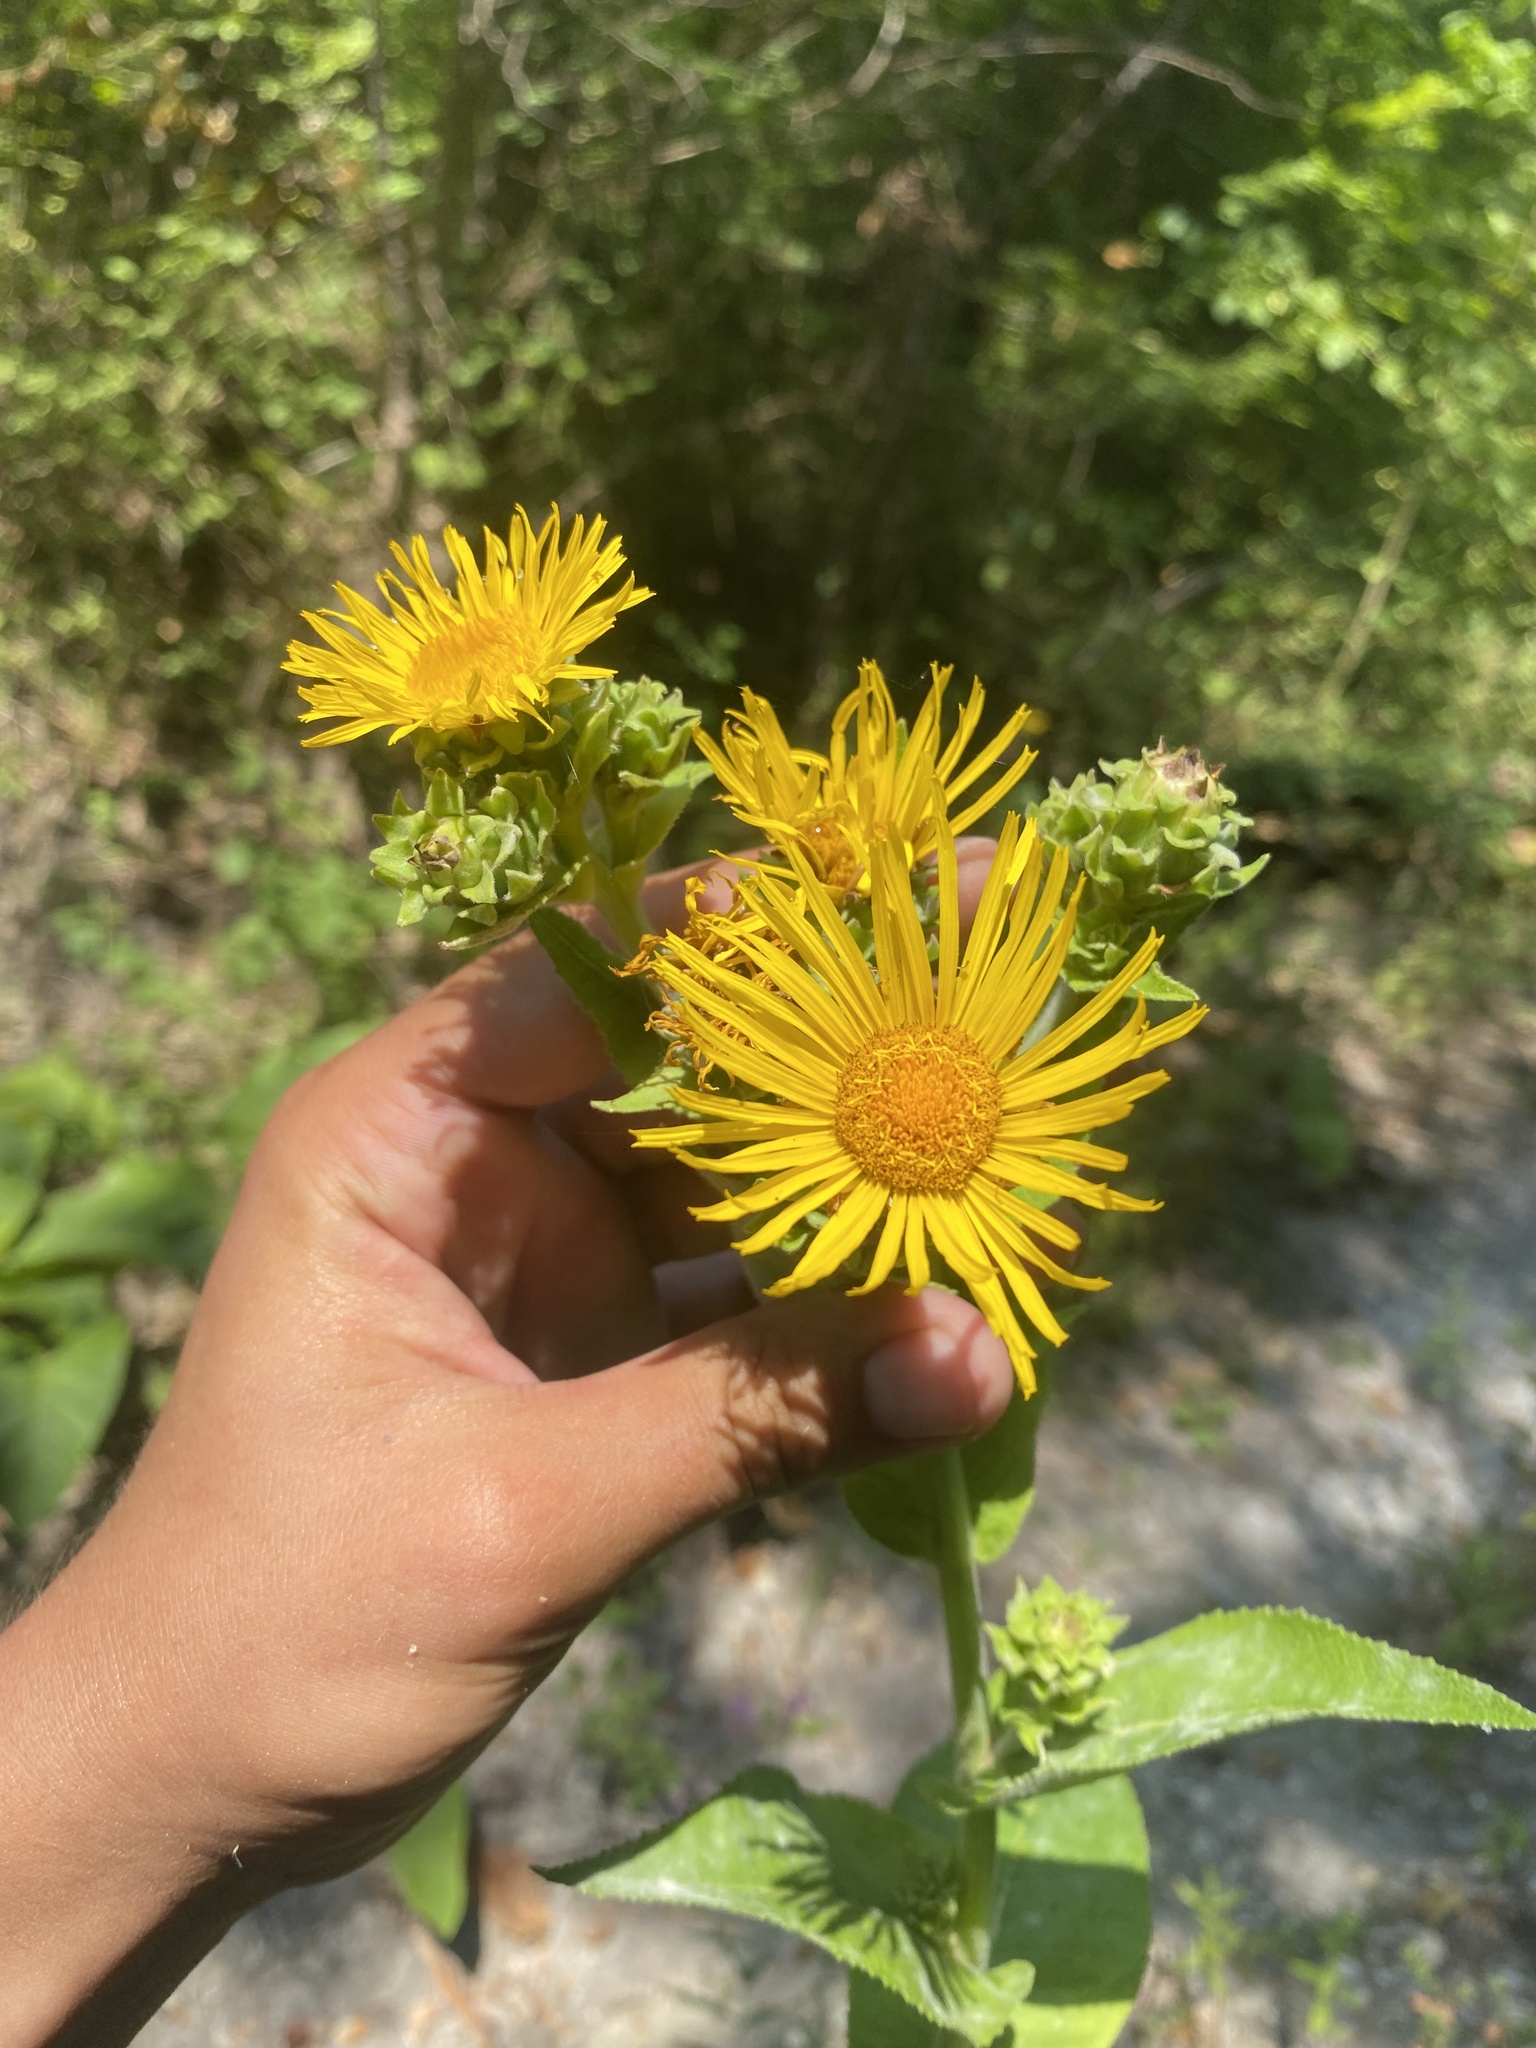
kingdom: Plantae
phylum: Tracheophyta
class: Magnoliopsida
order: Asterales
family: Asteraceae
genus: Inula
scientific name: Inula helenium
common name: Elecampane
